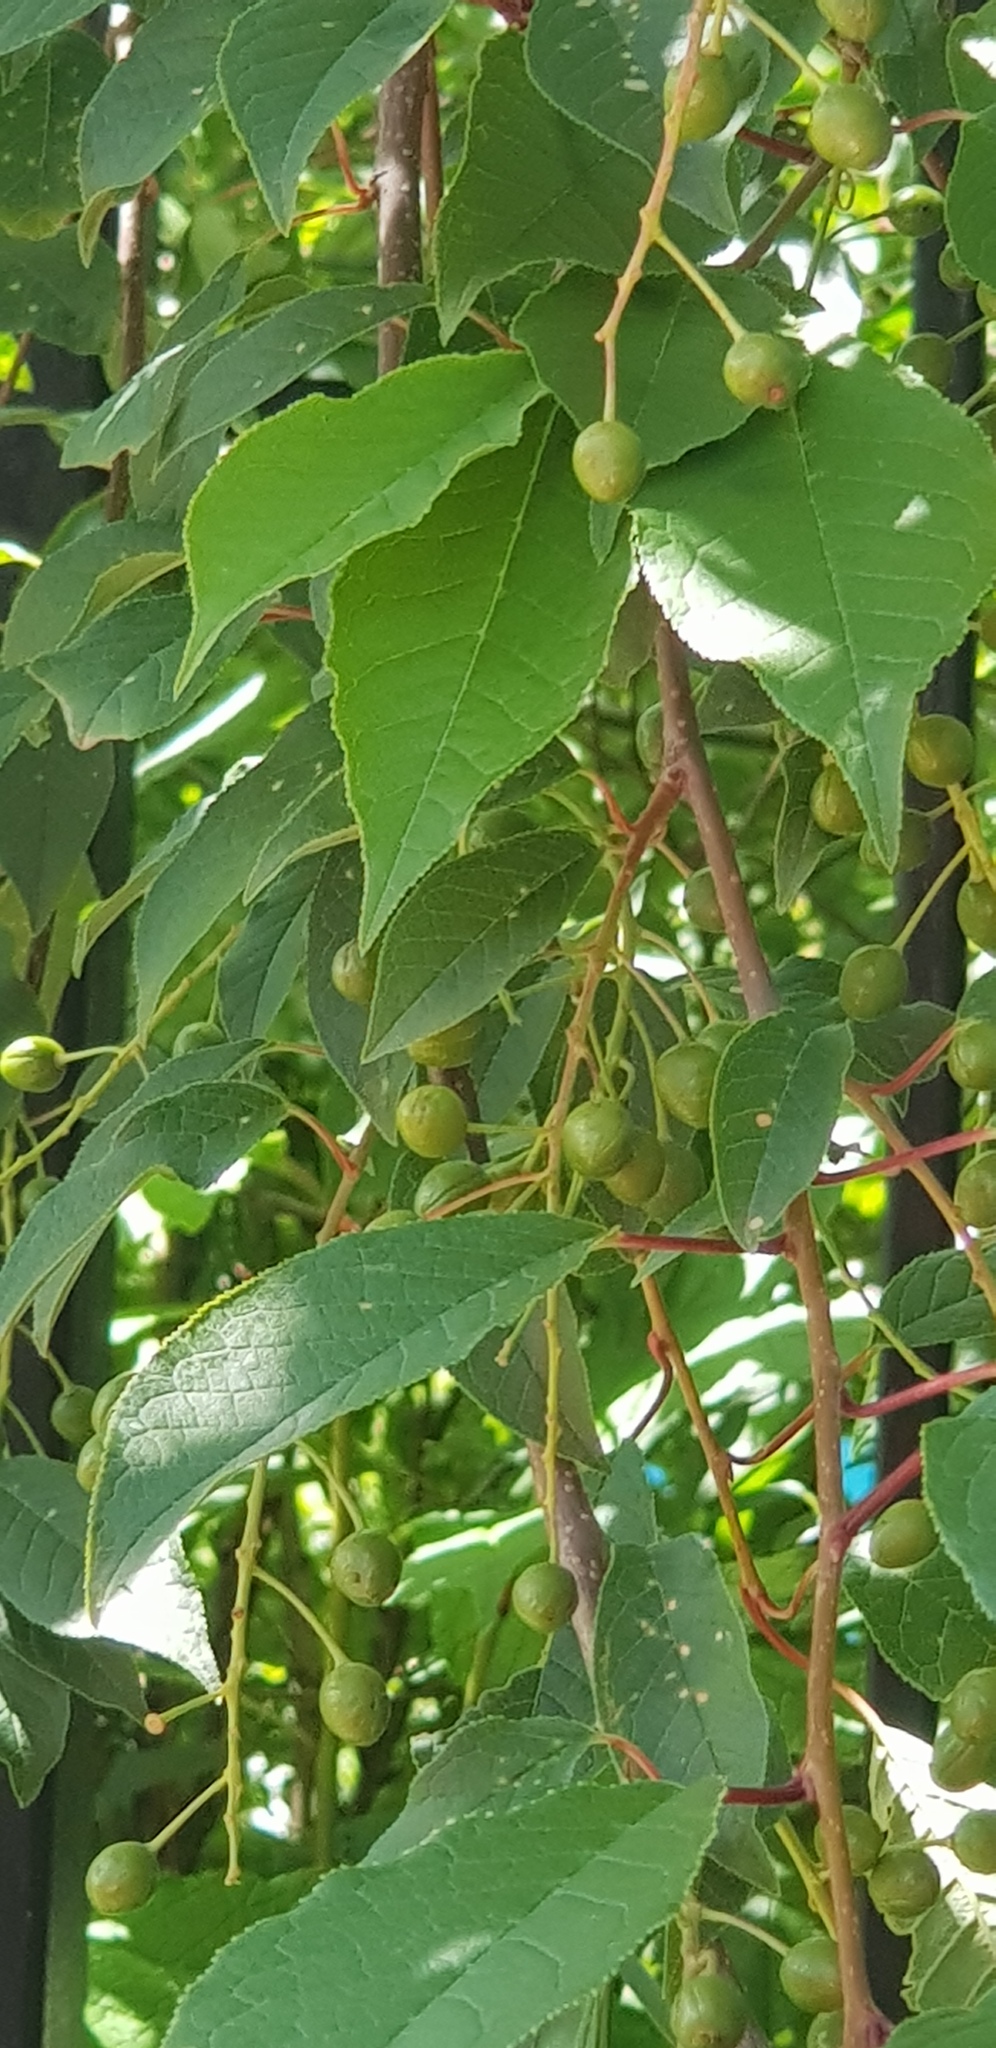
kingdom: Plantae
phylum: Tracheophyta
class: Magnoliopsida
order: Rosales
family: Rosaceae
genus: Prunus
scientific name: Prunus padus
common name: Bird cherry
